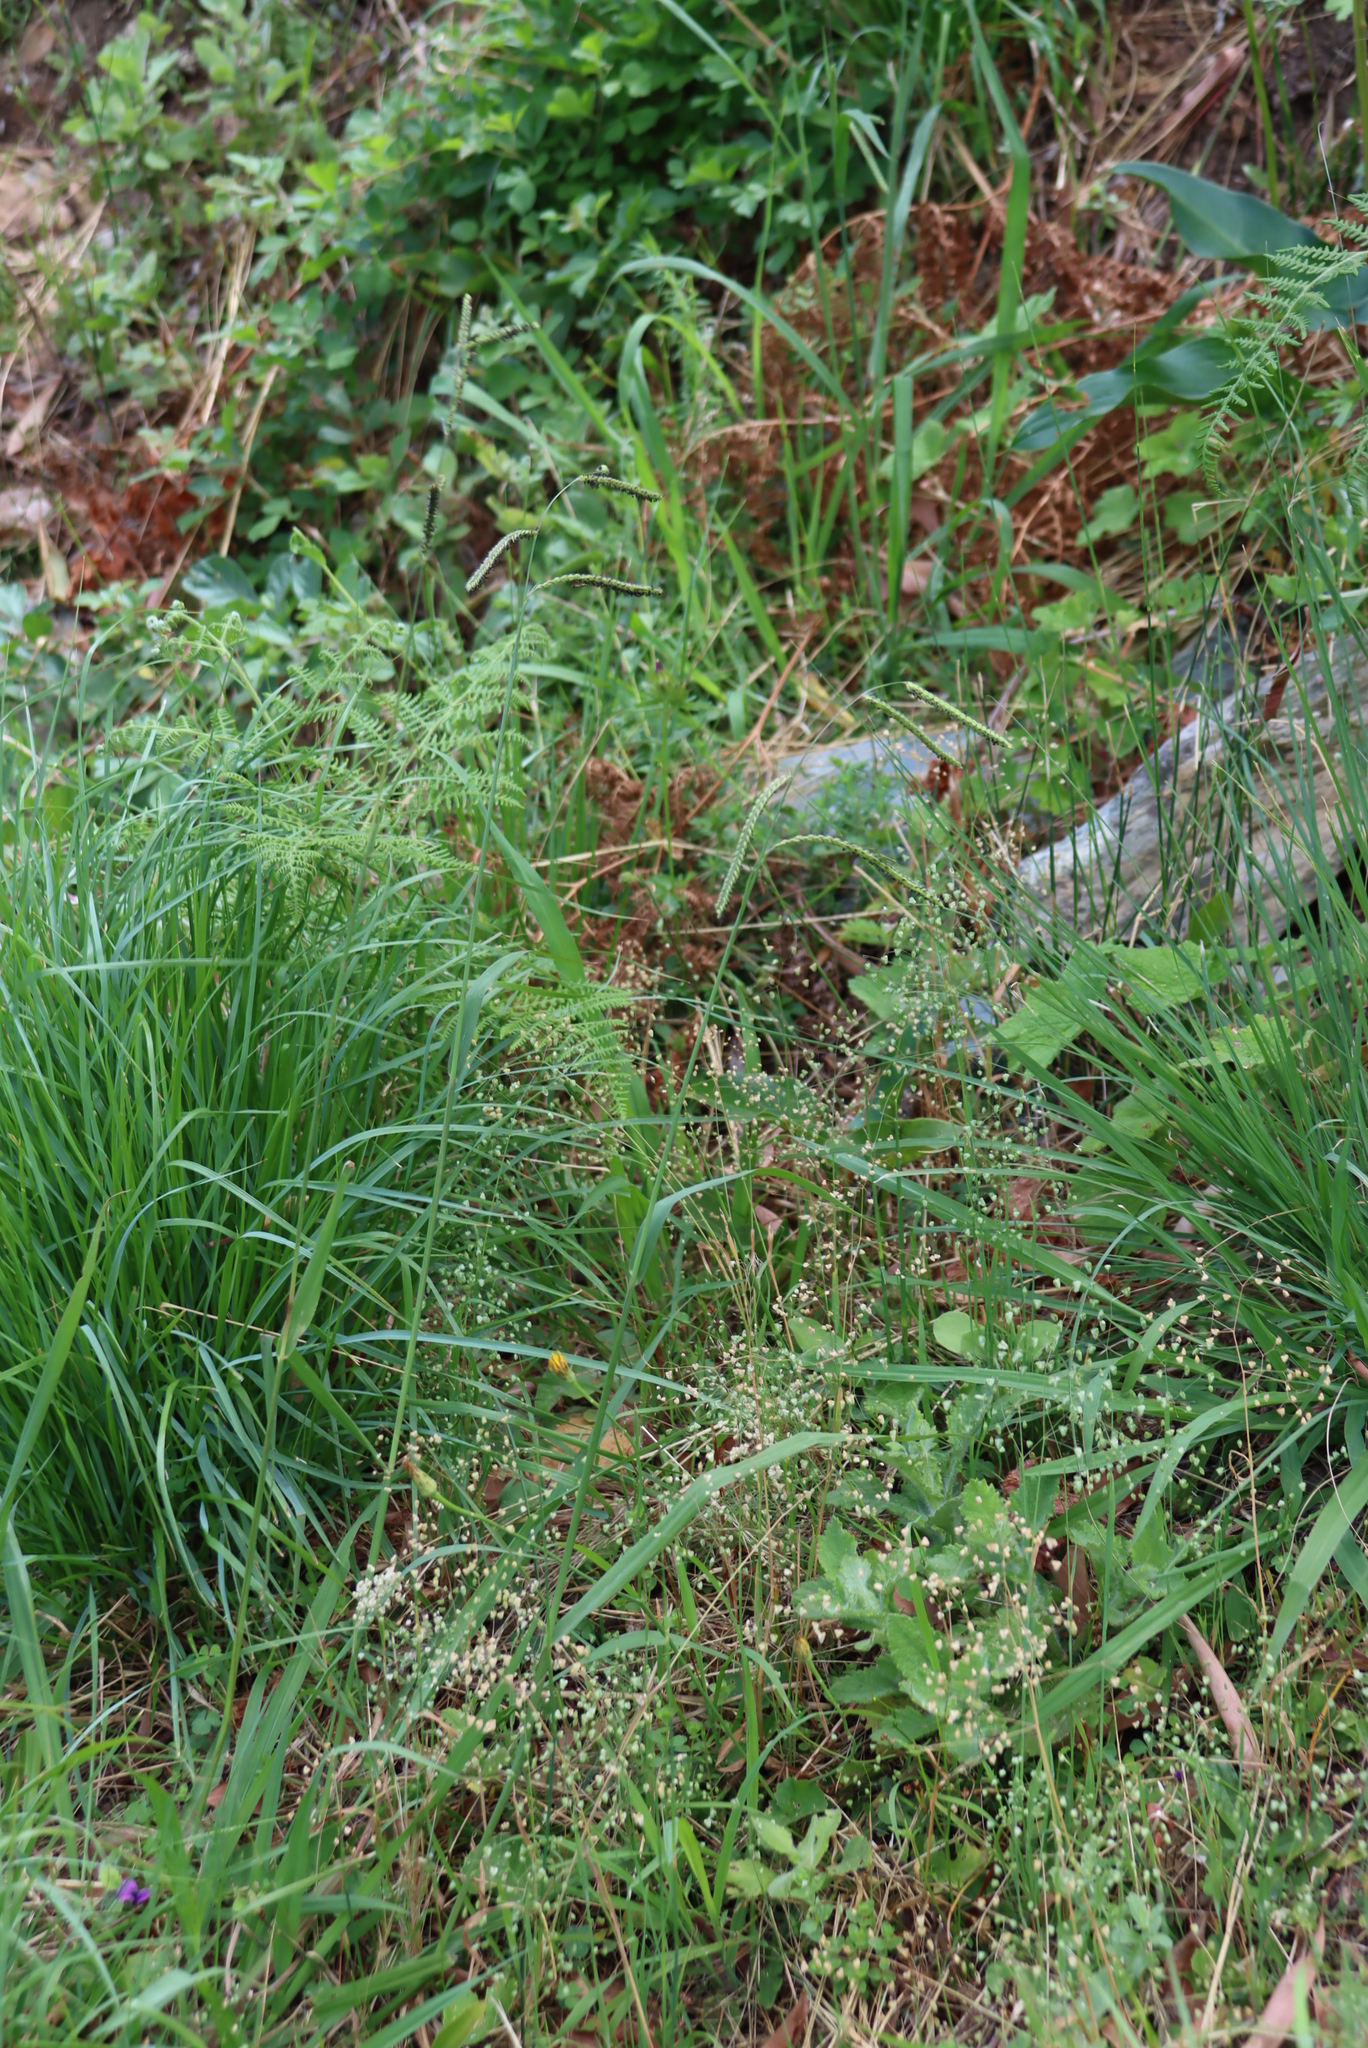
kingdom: Plantae
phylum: Tracheophyta
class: Liliopsida
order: Poales
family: Poaceae
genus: Briza
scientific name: Briza minor
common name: Lesser quaking-grass
